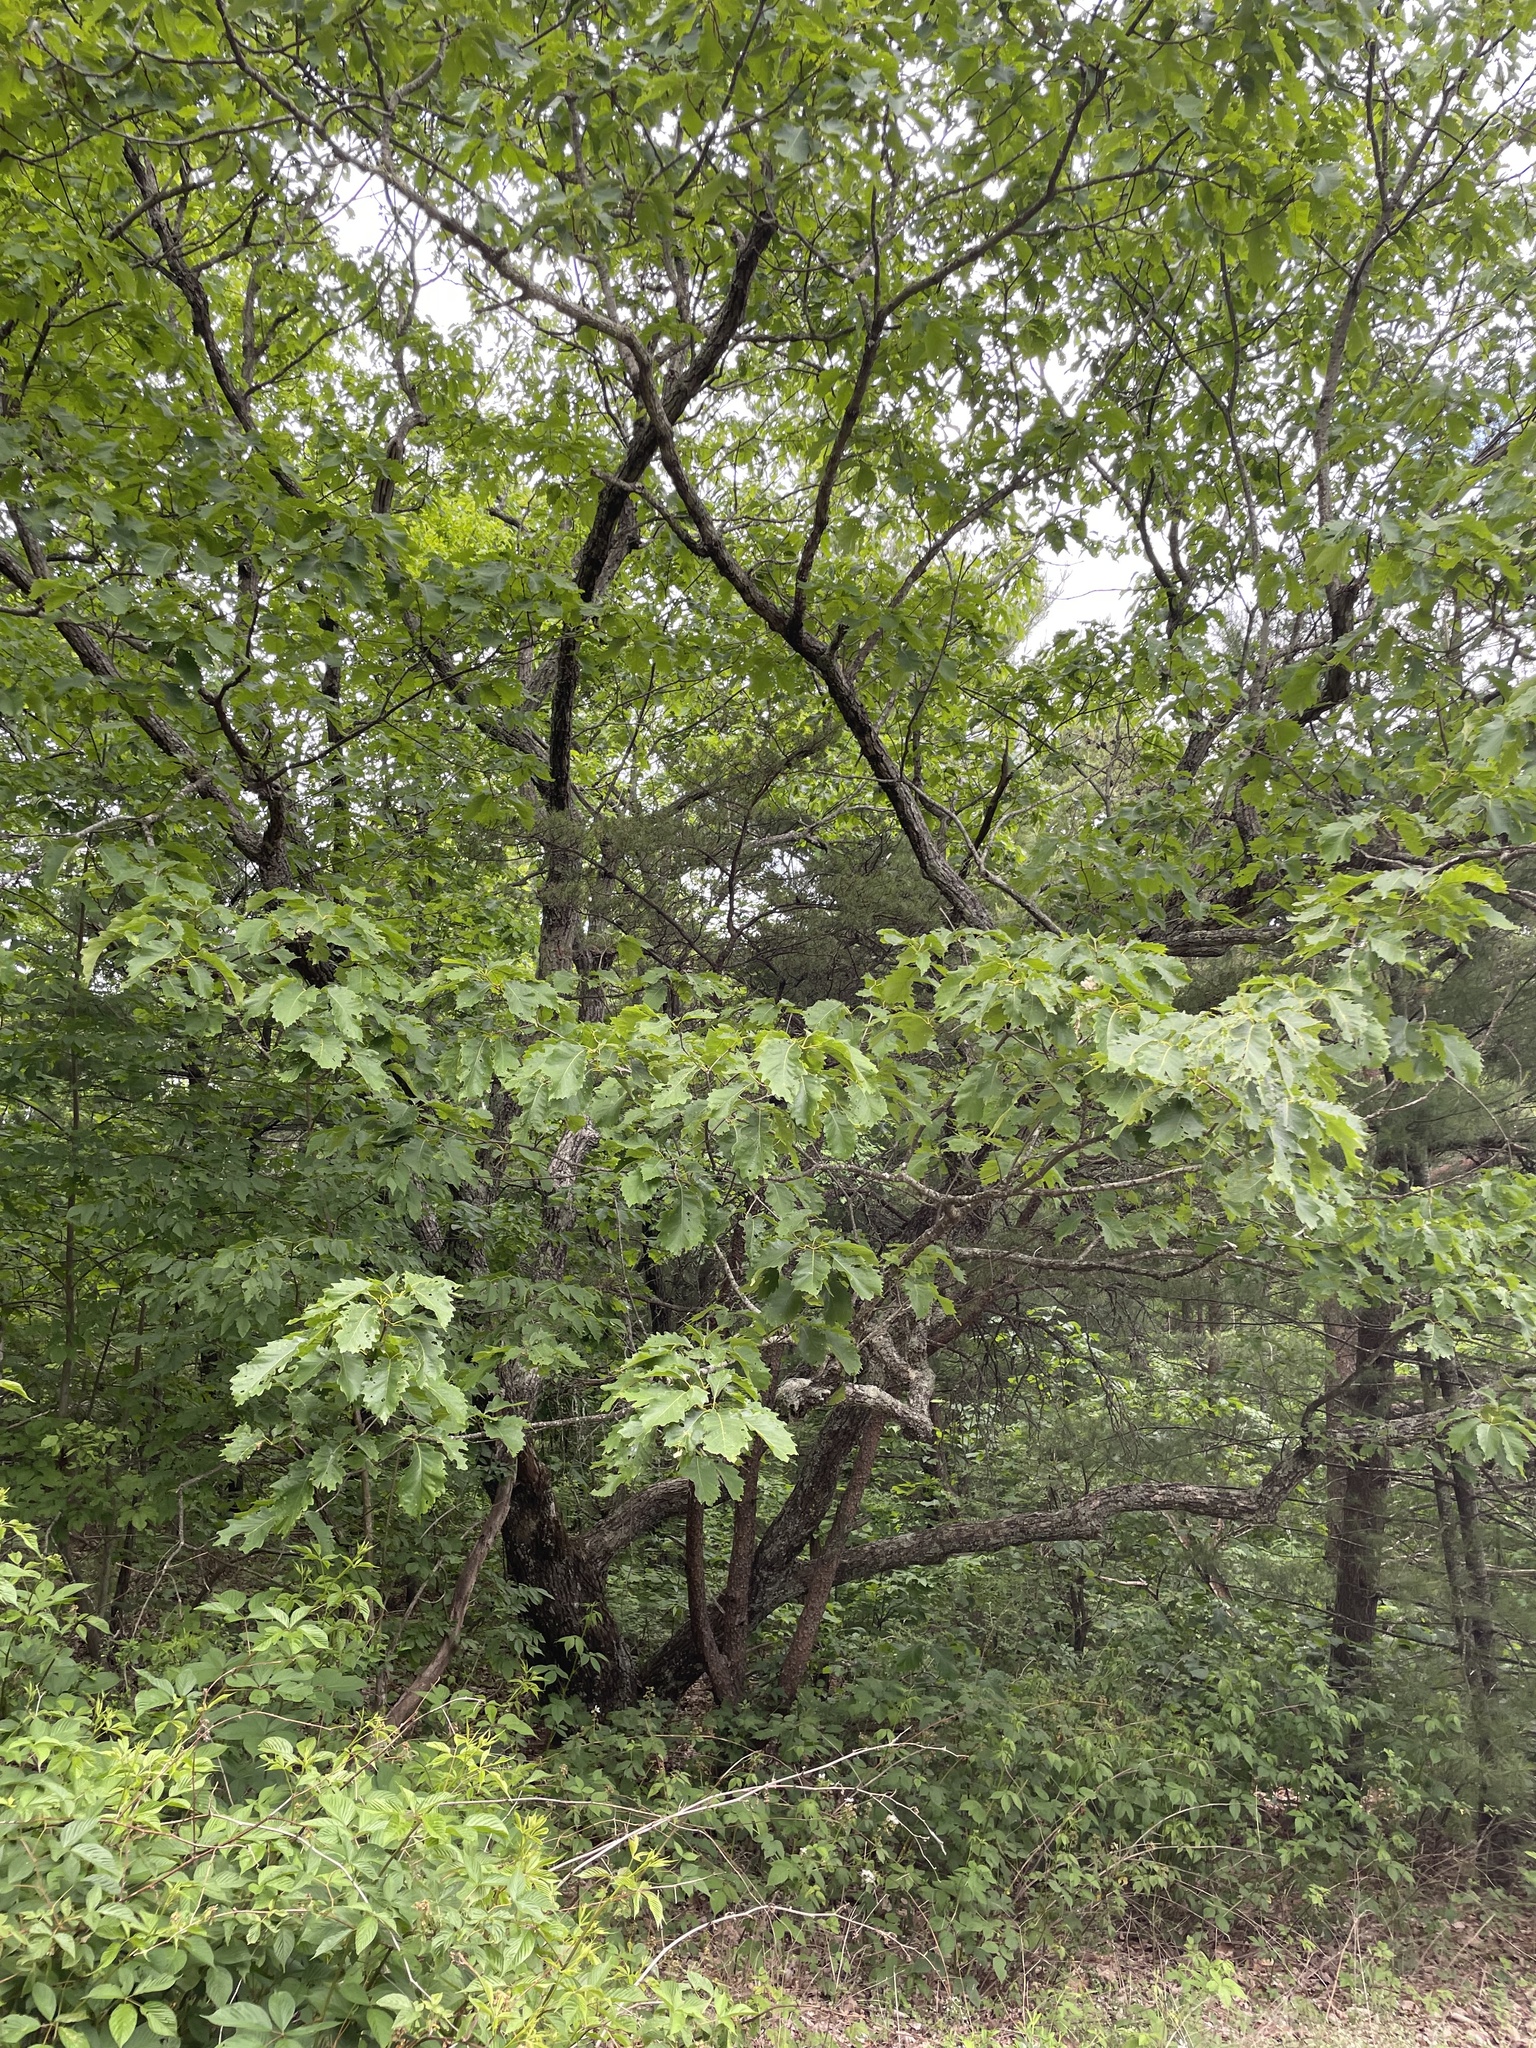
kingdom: Plantae
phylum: Tracheophyta
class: Magnoliopsida
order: Fagales
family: Fagaceae
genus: Quercus
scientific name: Quercus montana
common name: Chestnut oak
